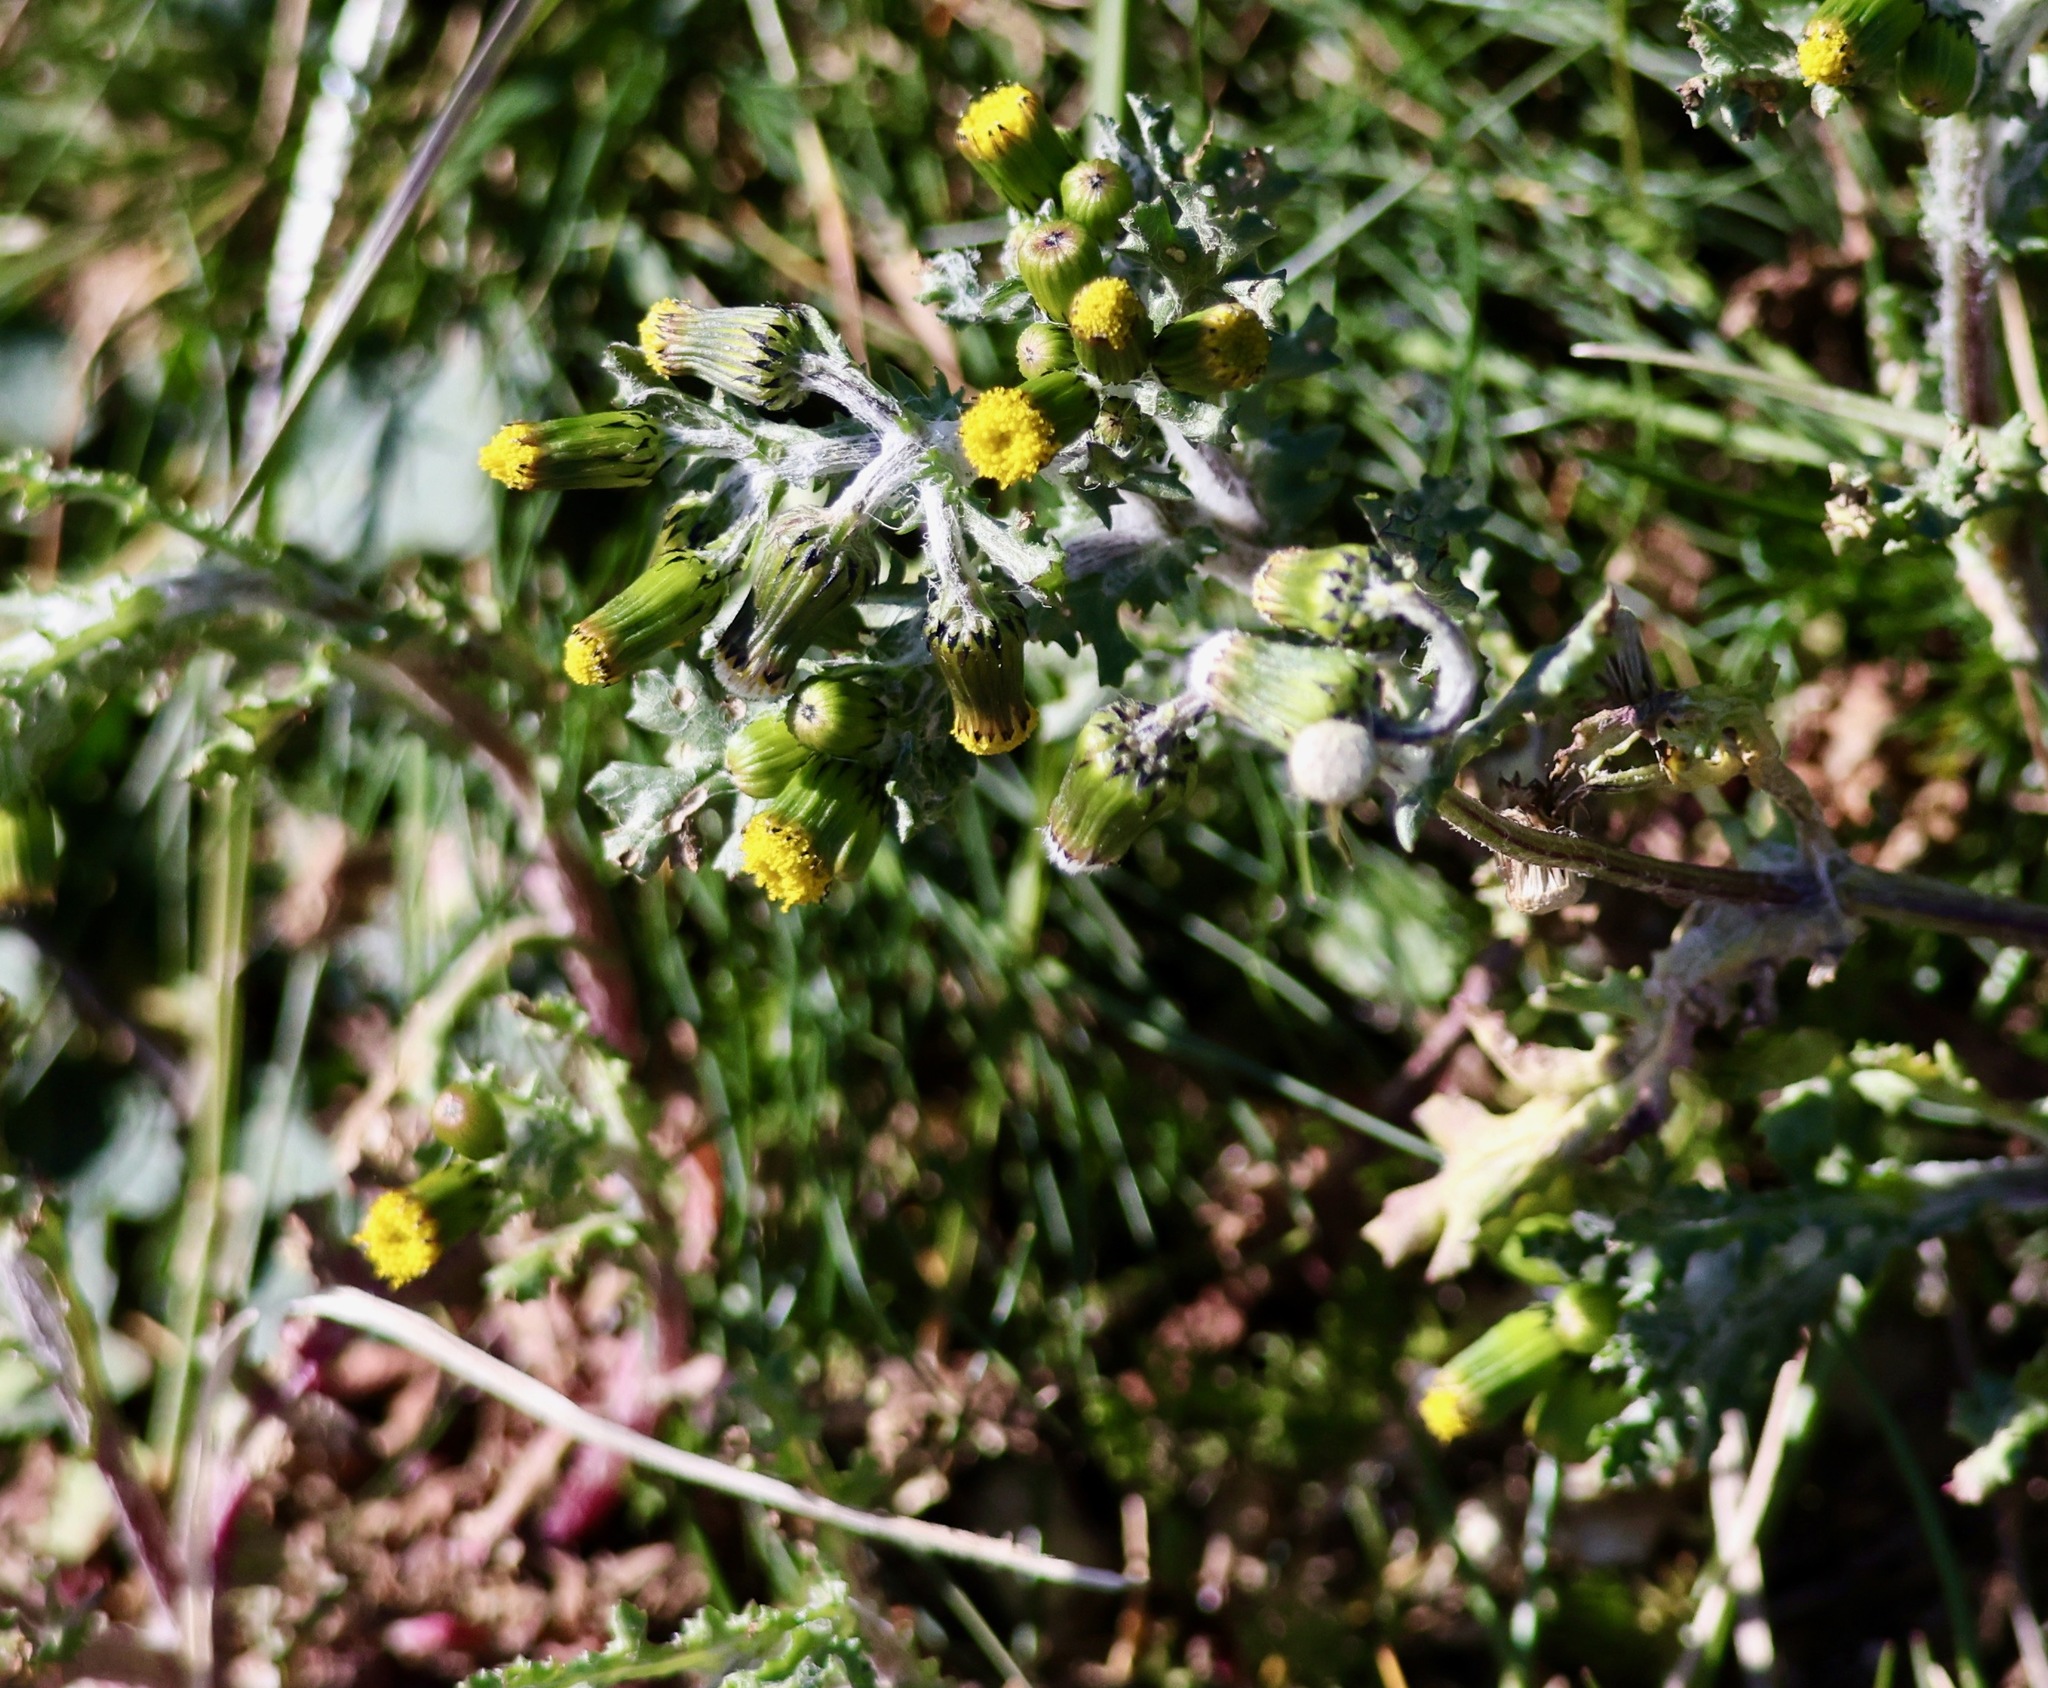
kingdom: Plantae
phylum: Tracheophyta
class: Magnoliopsida
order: Asterales
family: Asteraceae
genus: Senecio
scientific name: Senecio vulgaris
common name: Old-man-in-the-spring
